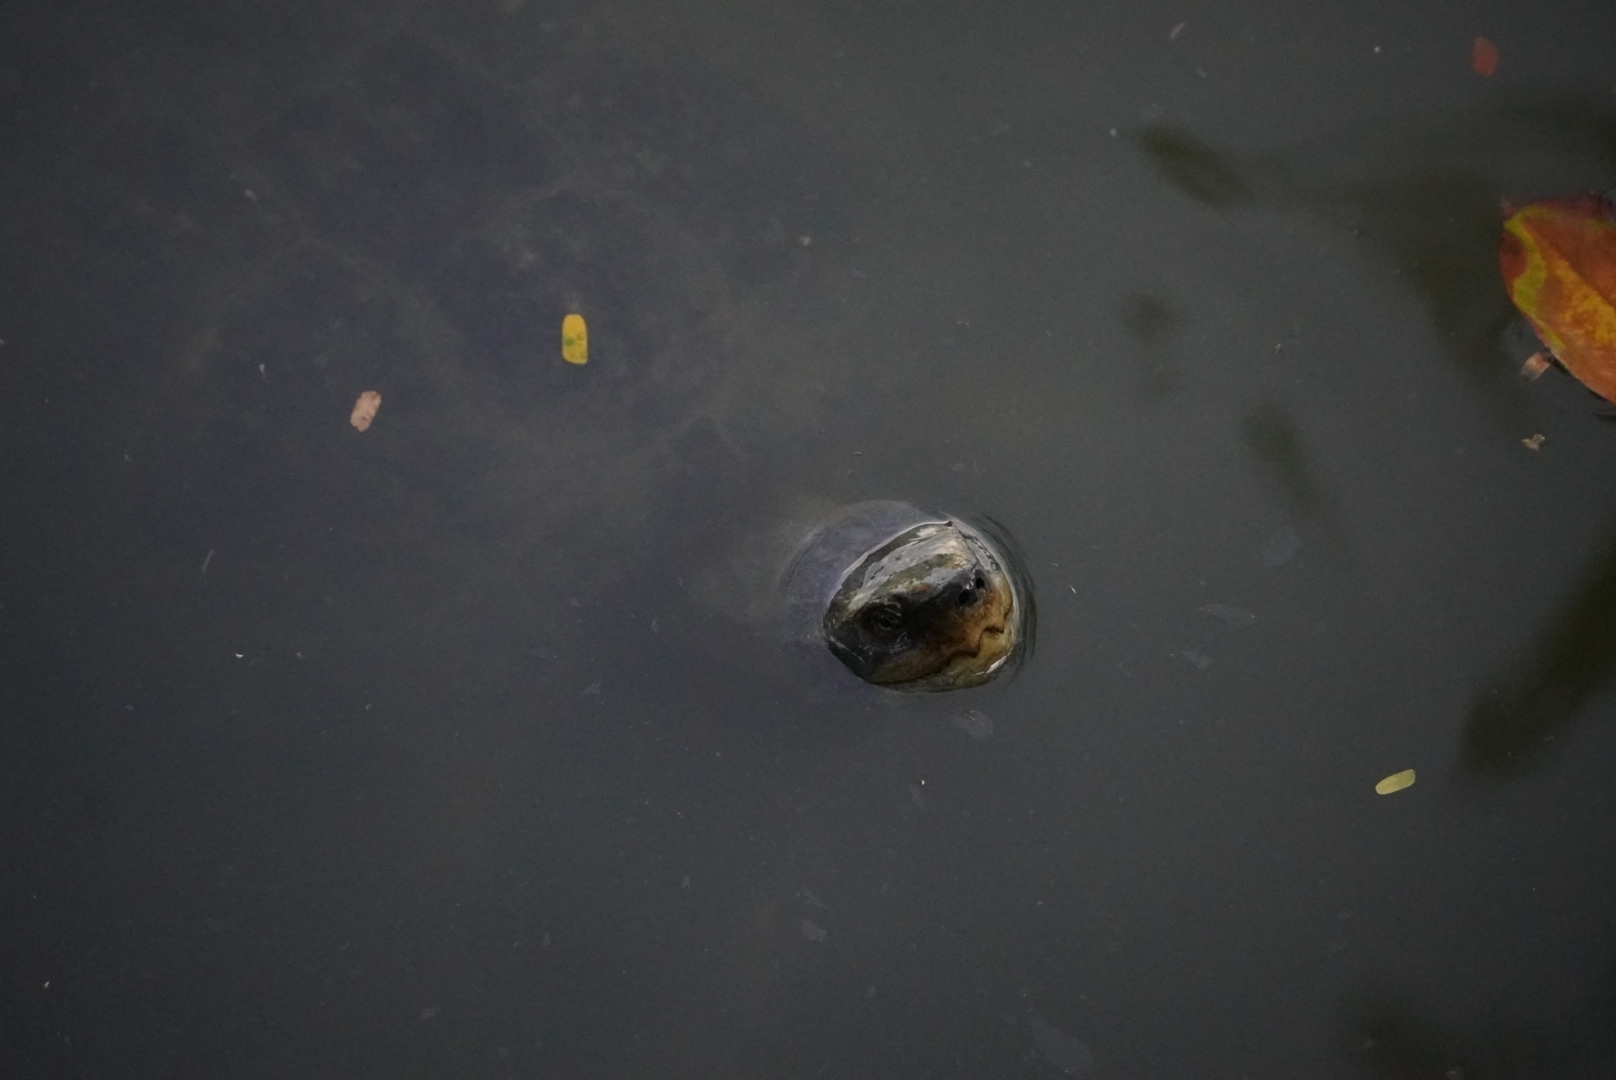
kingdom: Animalia
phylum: Chordata
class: Testudines
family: Geoemydidae
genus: Heosemys
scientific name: Heosemys annandalii
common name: Yellow-headed temple turtle
